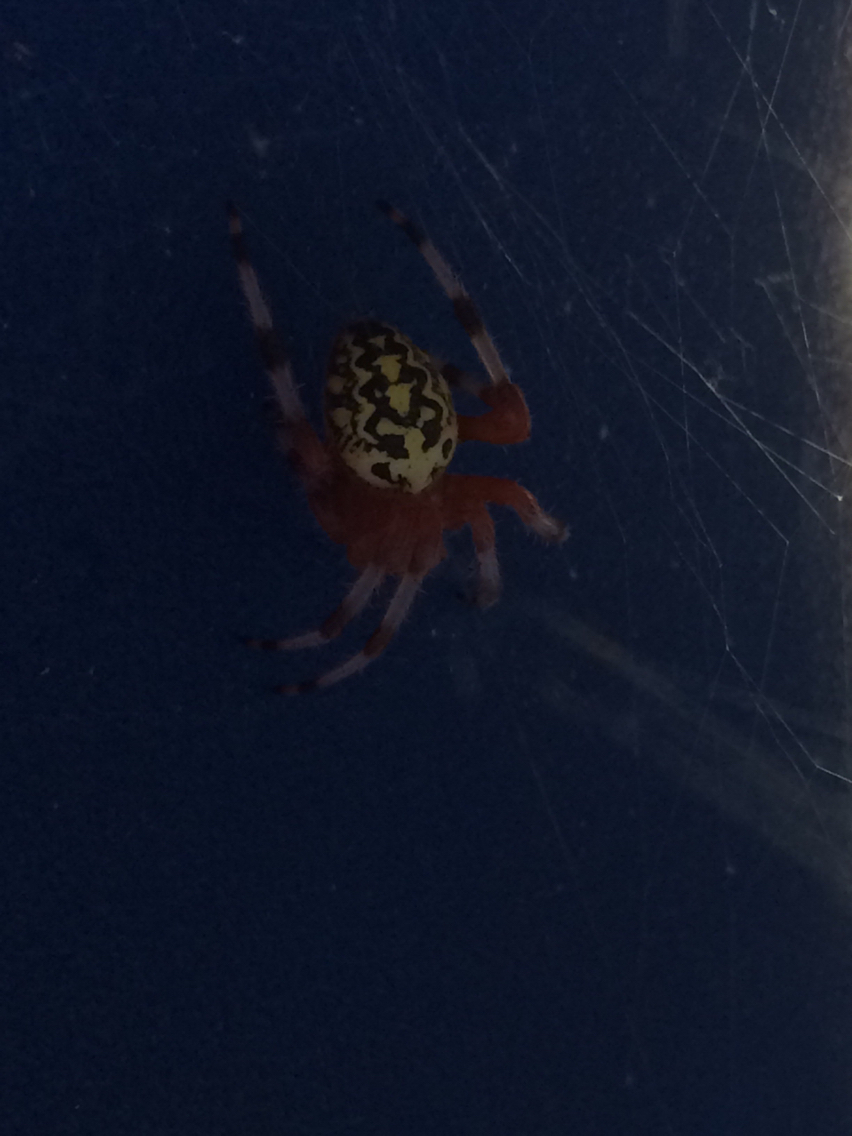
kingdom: Animalia
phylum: Arthropoda
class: Arachnida
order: Araneae
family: Araneidae
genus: Araneus
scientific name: Araneus marmoreus
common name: Marbled orbweaver
